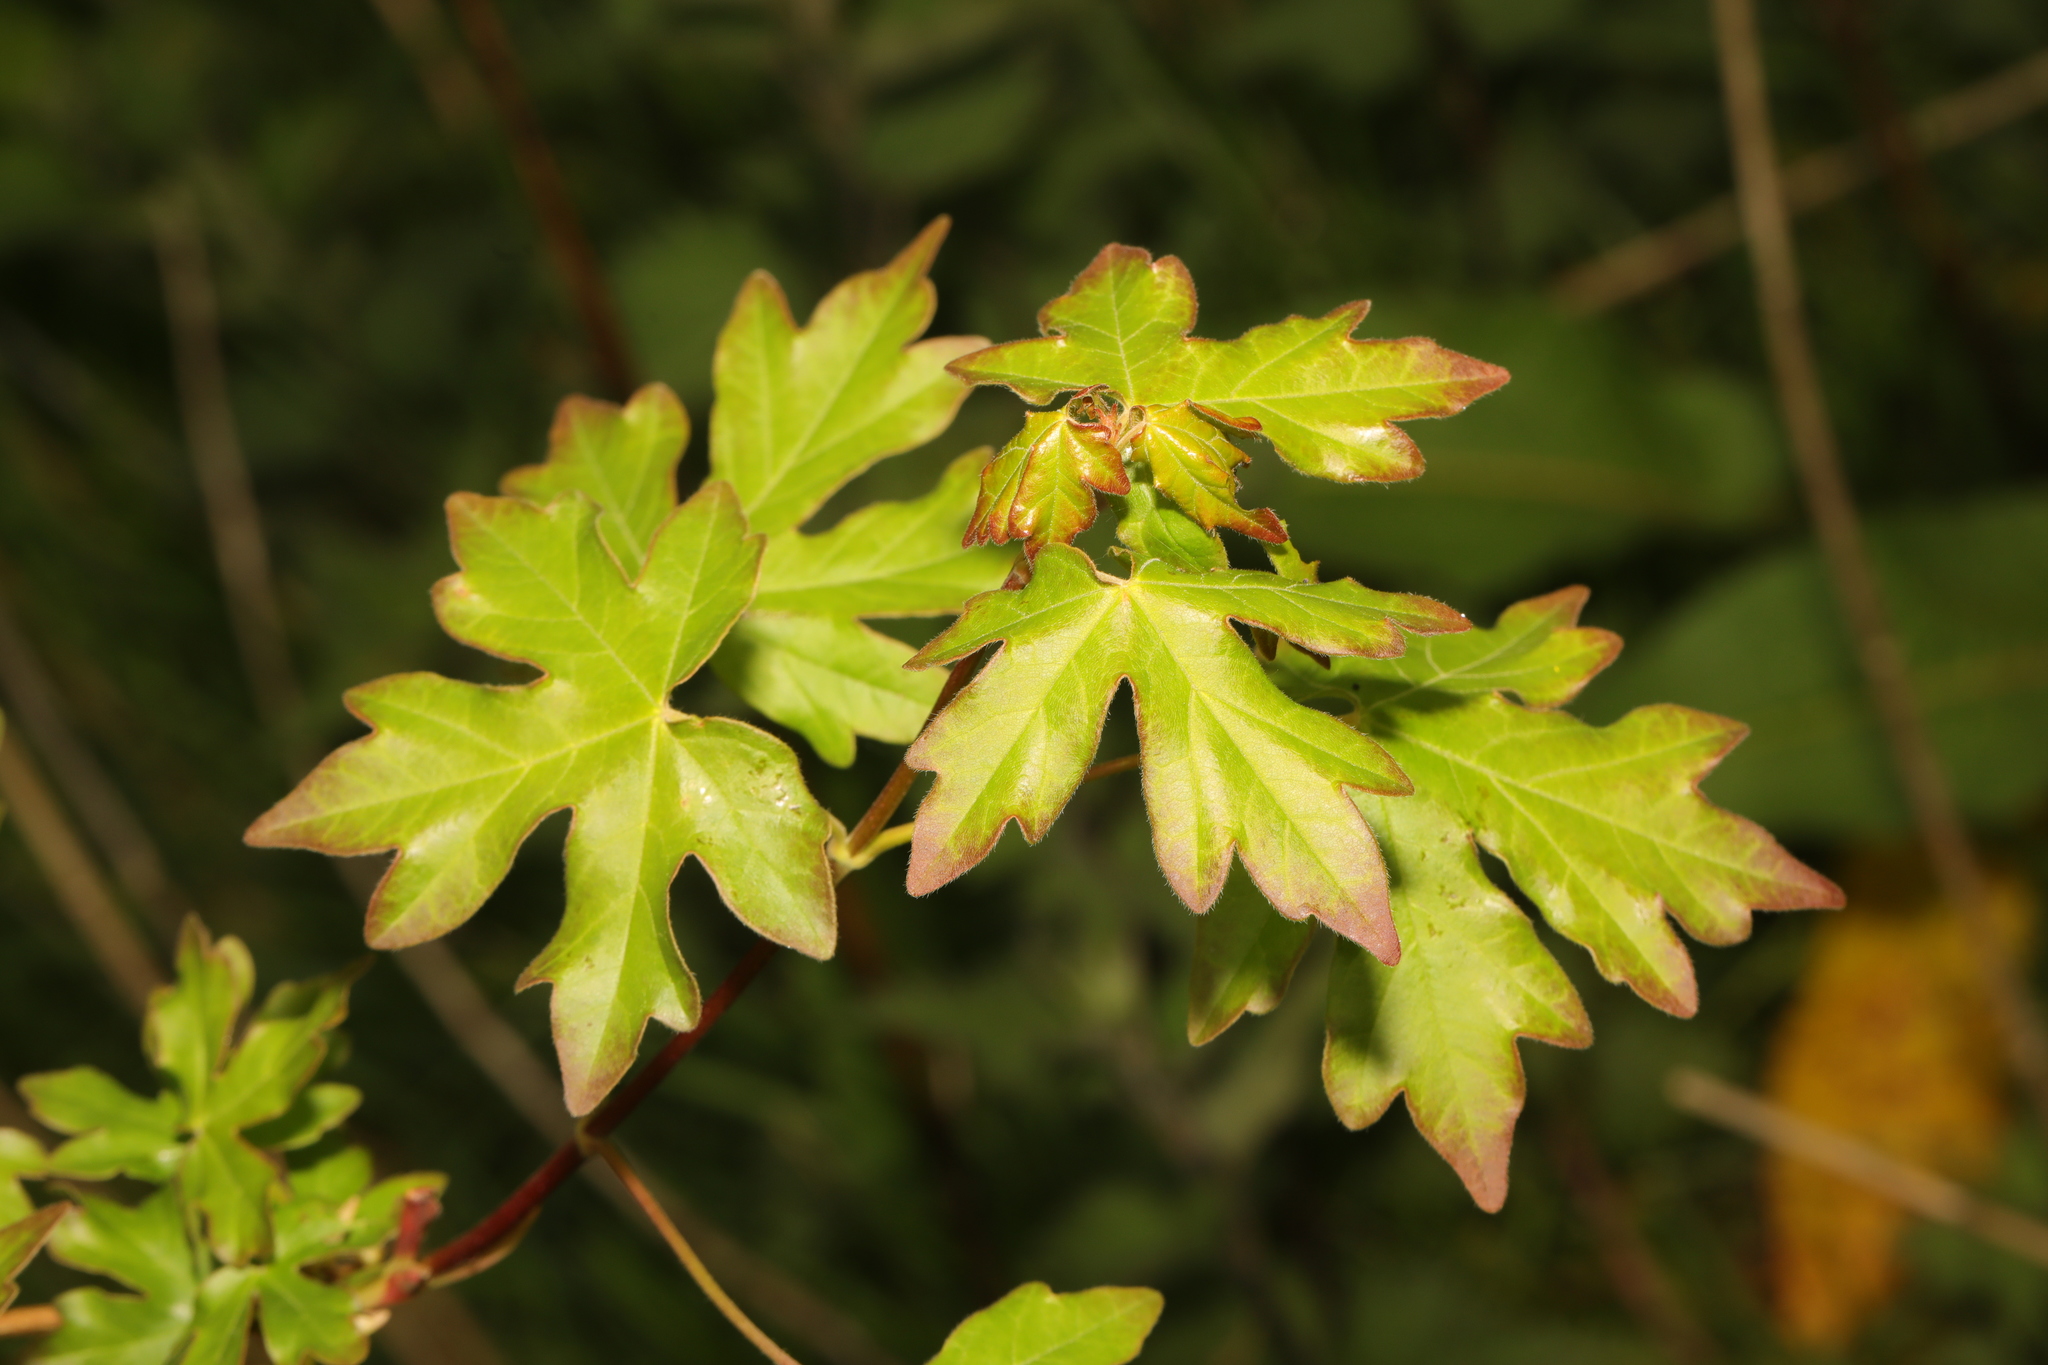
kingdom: Plantae
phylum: Tracheophyta
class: Magnoliopsida
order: Sapindales
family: Sapindaceae
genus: Acer
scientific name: Acer campestre
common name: Field maple
